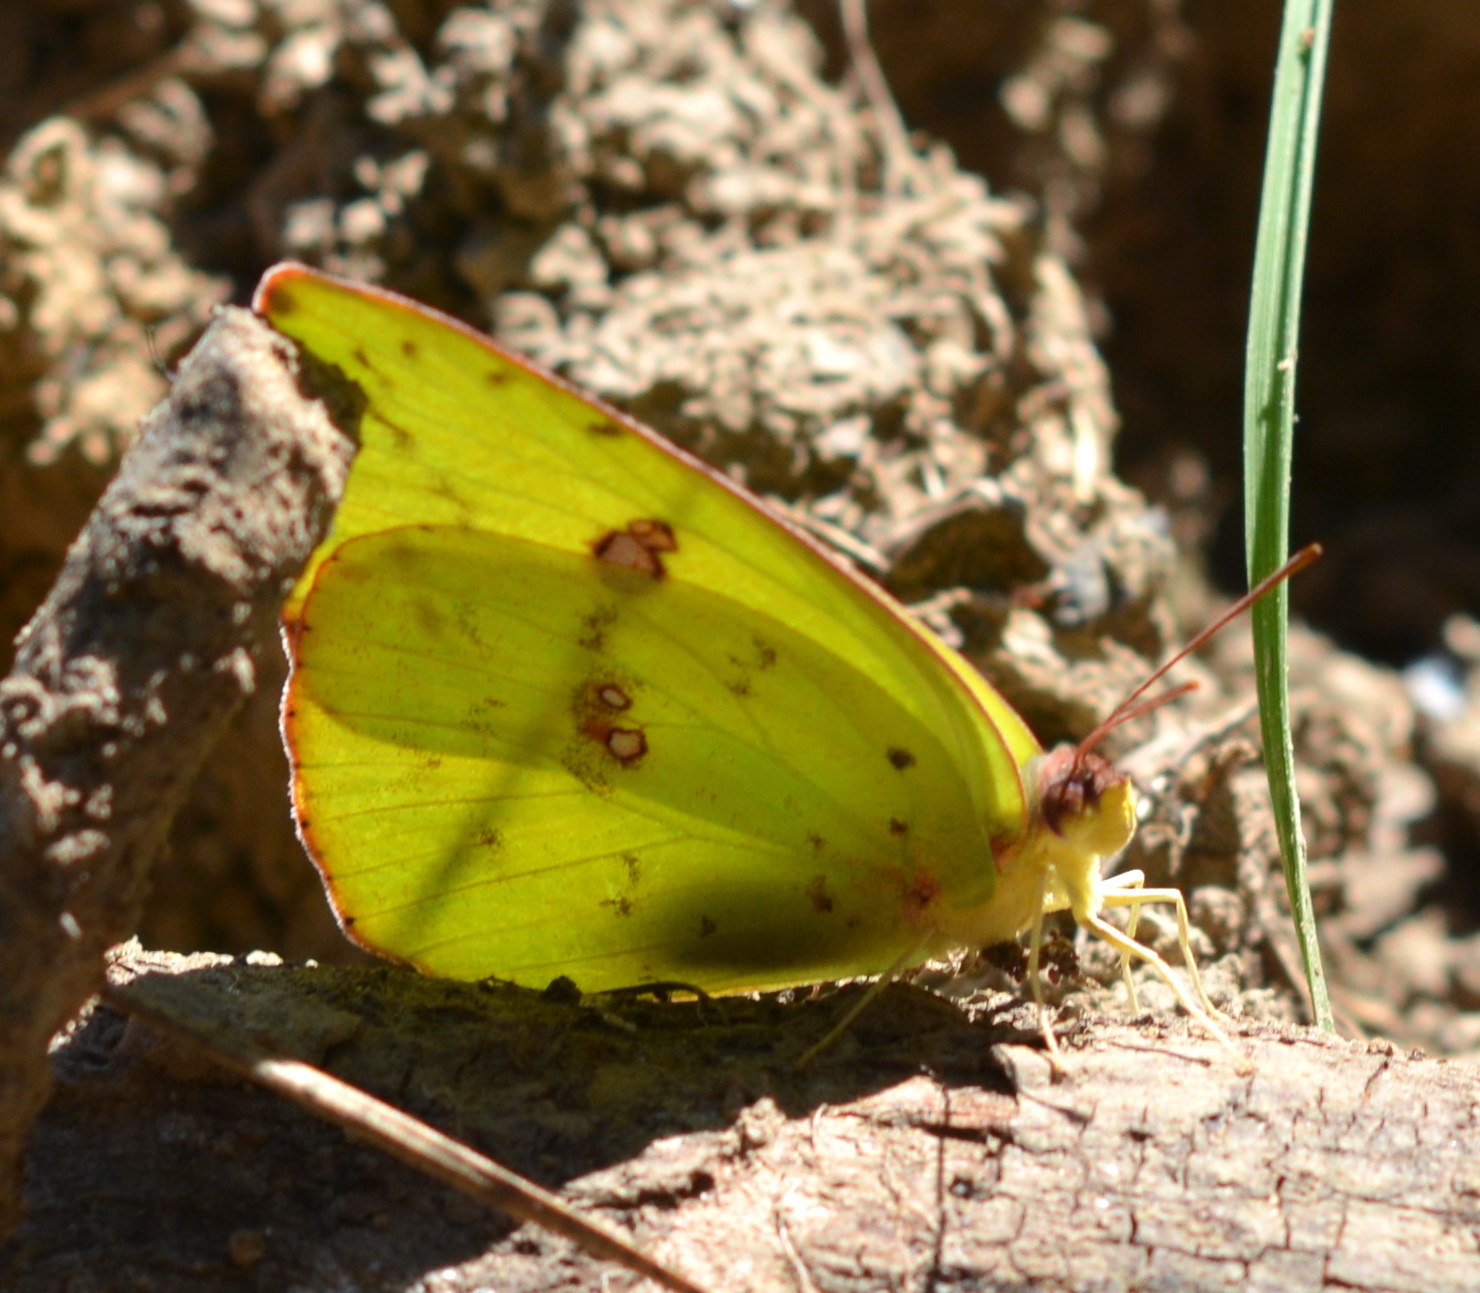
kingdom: Animalia
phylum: Arthropoda
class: Insecta
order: Lepidoptera
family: Pieridae
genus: Phoebis
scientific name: Phoebis sennae
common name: Cloudless sulphur
